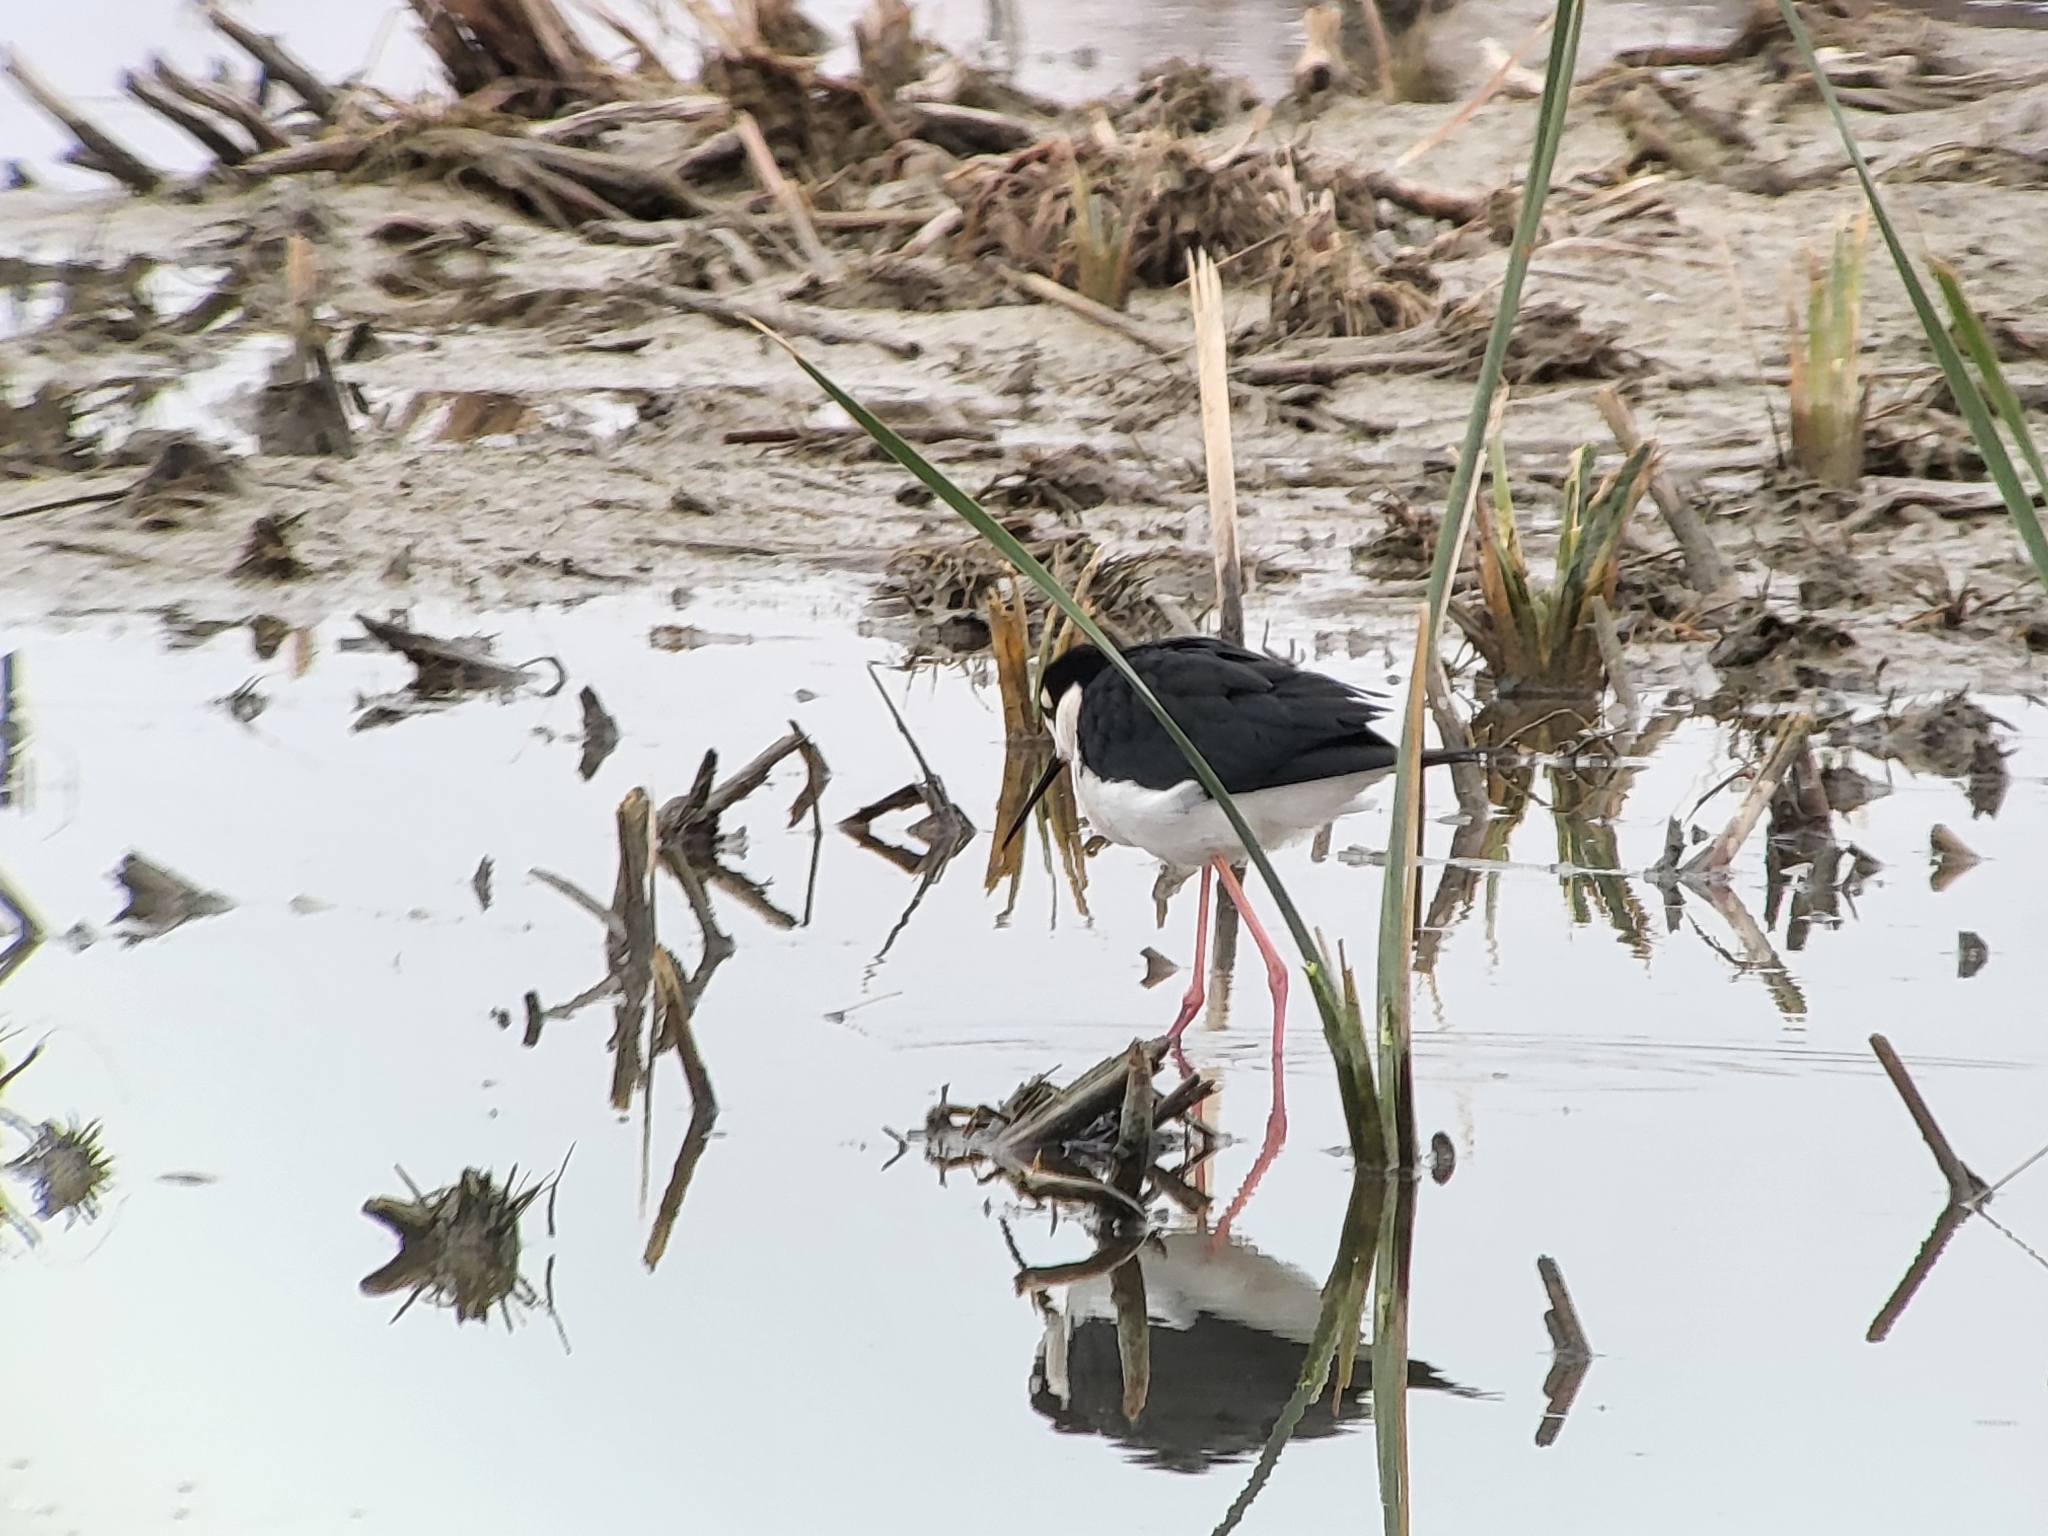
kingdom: Animalia
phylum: Chordata
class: Aves
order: Charadriiformes
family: Recurvirostridae
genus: Himantopus
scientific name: Himantopus mexicanus
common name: Black-necked stilt
